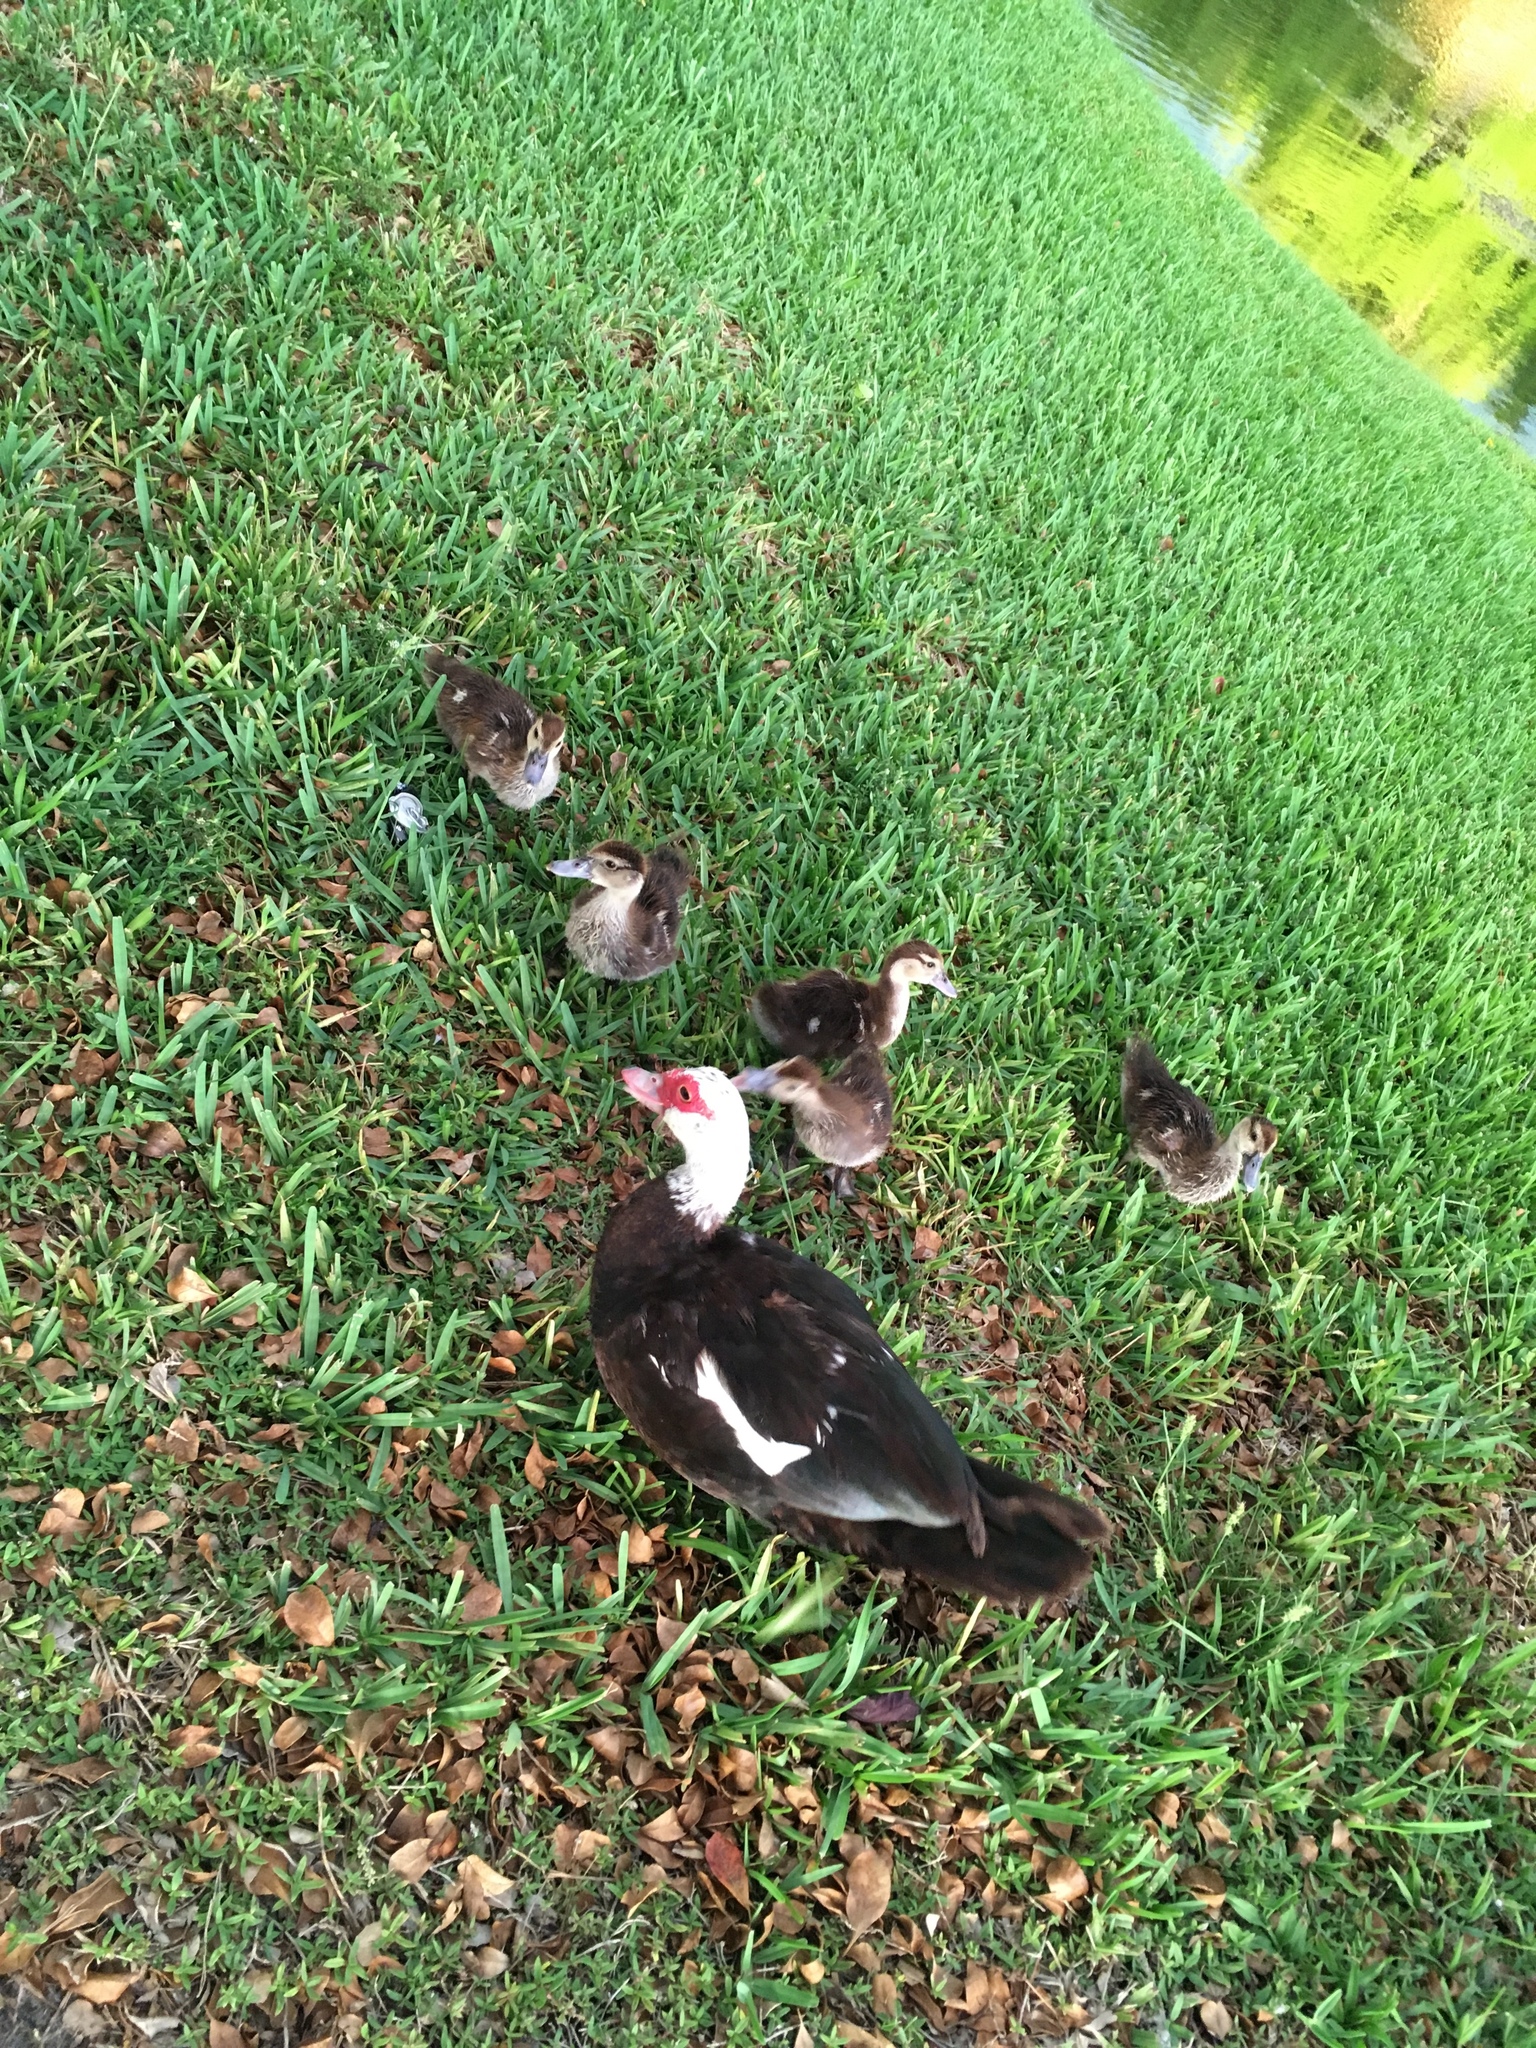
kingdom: Animalia
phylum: Chordata
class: Aves
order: Anseriformes
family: Anatidae
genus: Cairina
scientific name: Cairina moschata
